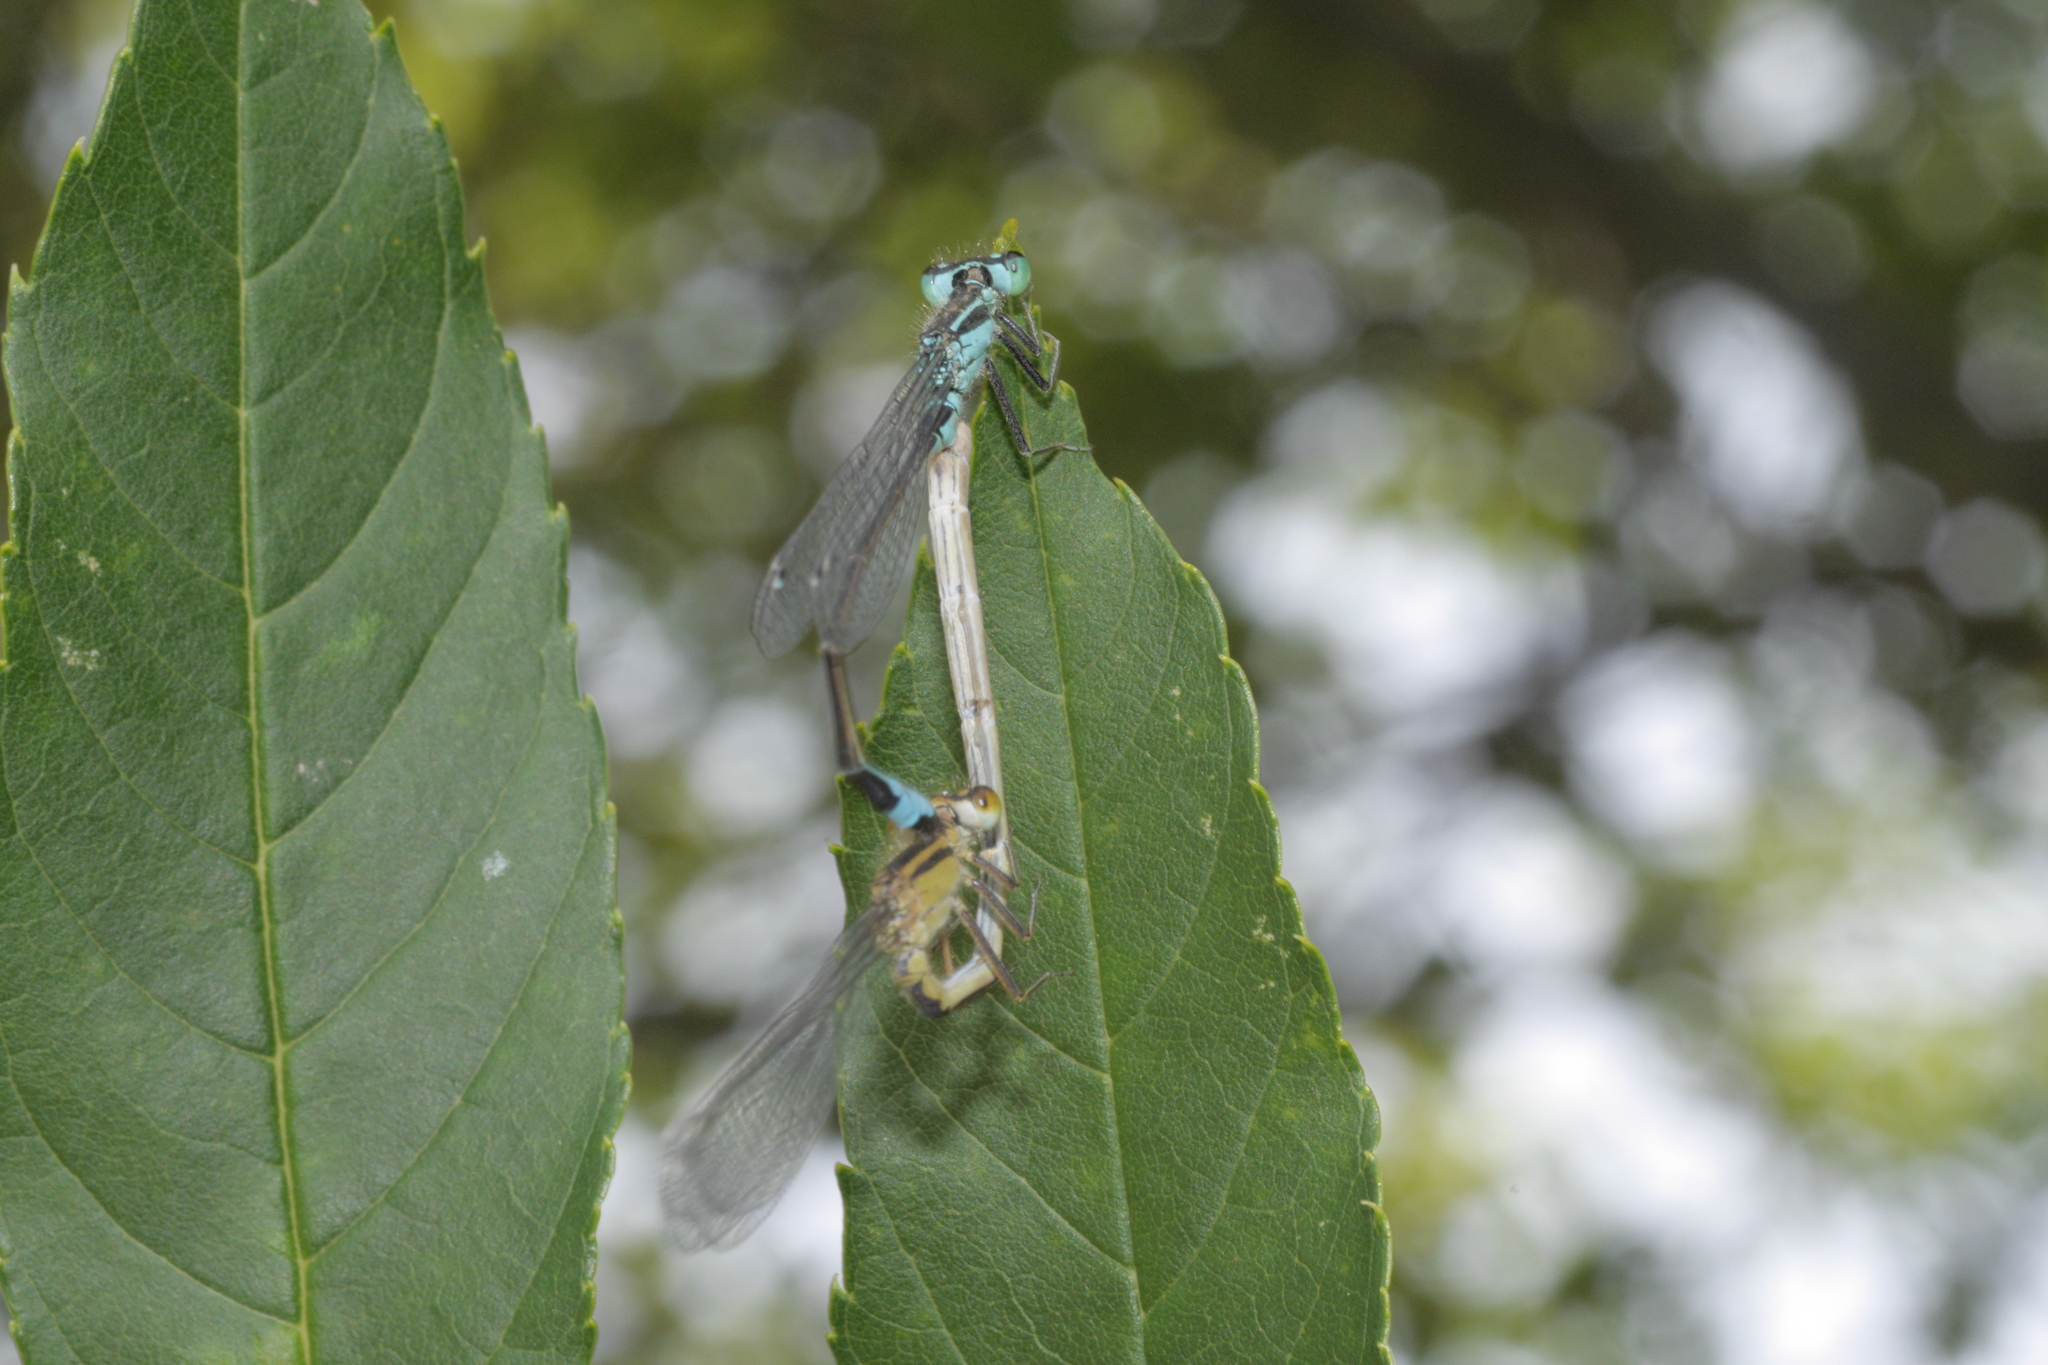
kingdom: Animalia
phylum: Arthropoda
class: Insecta
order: Odonata
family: Coenagrionidae
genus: Ischnura
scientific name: Ischnura elegans
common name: Blue-tailed damselfly
